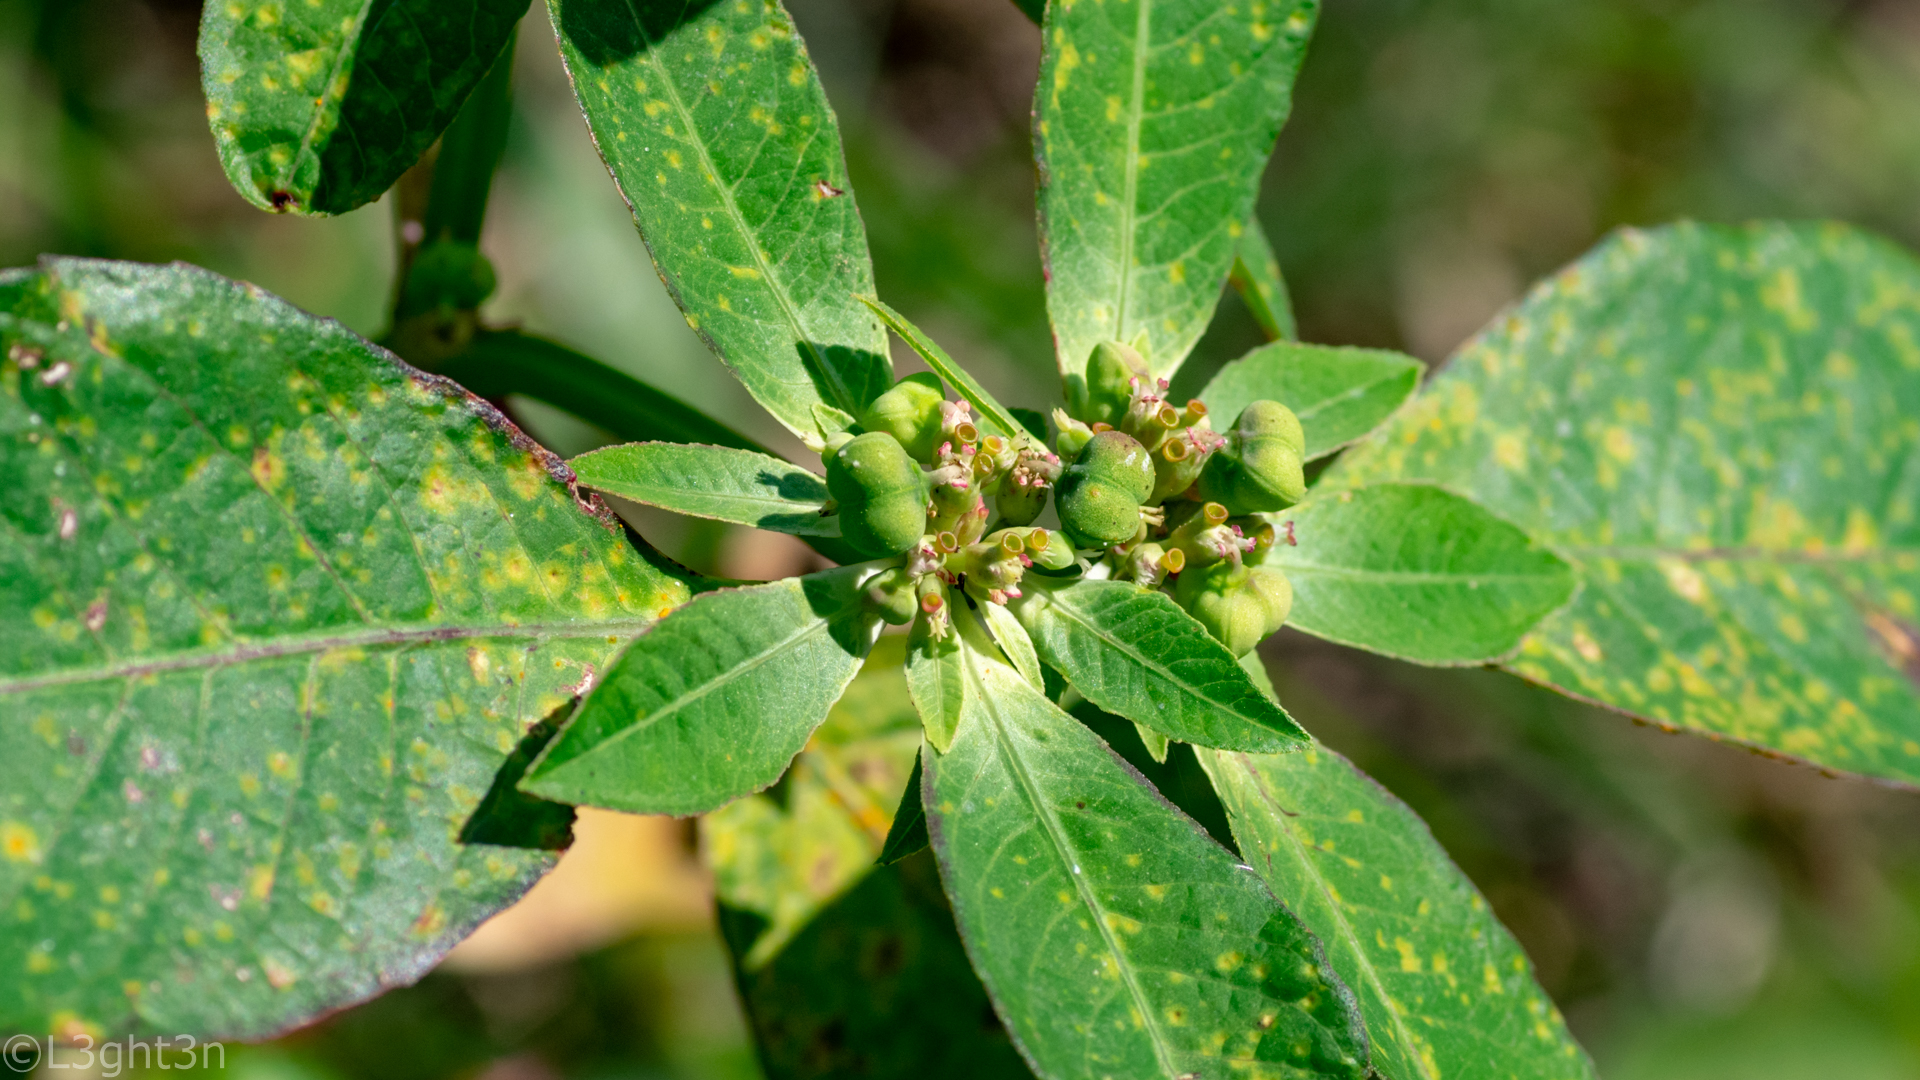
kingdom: Plantae
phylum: Tracheophyta
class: Magnoliopsida
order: Malpighiales
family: Euphorbiaceae
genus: Euphorbia
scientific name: Euphorbia heterophylla
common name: Mexican fireplant
